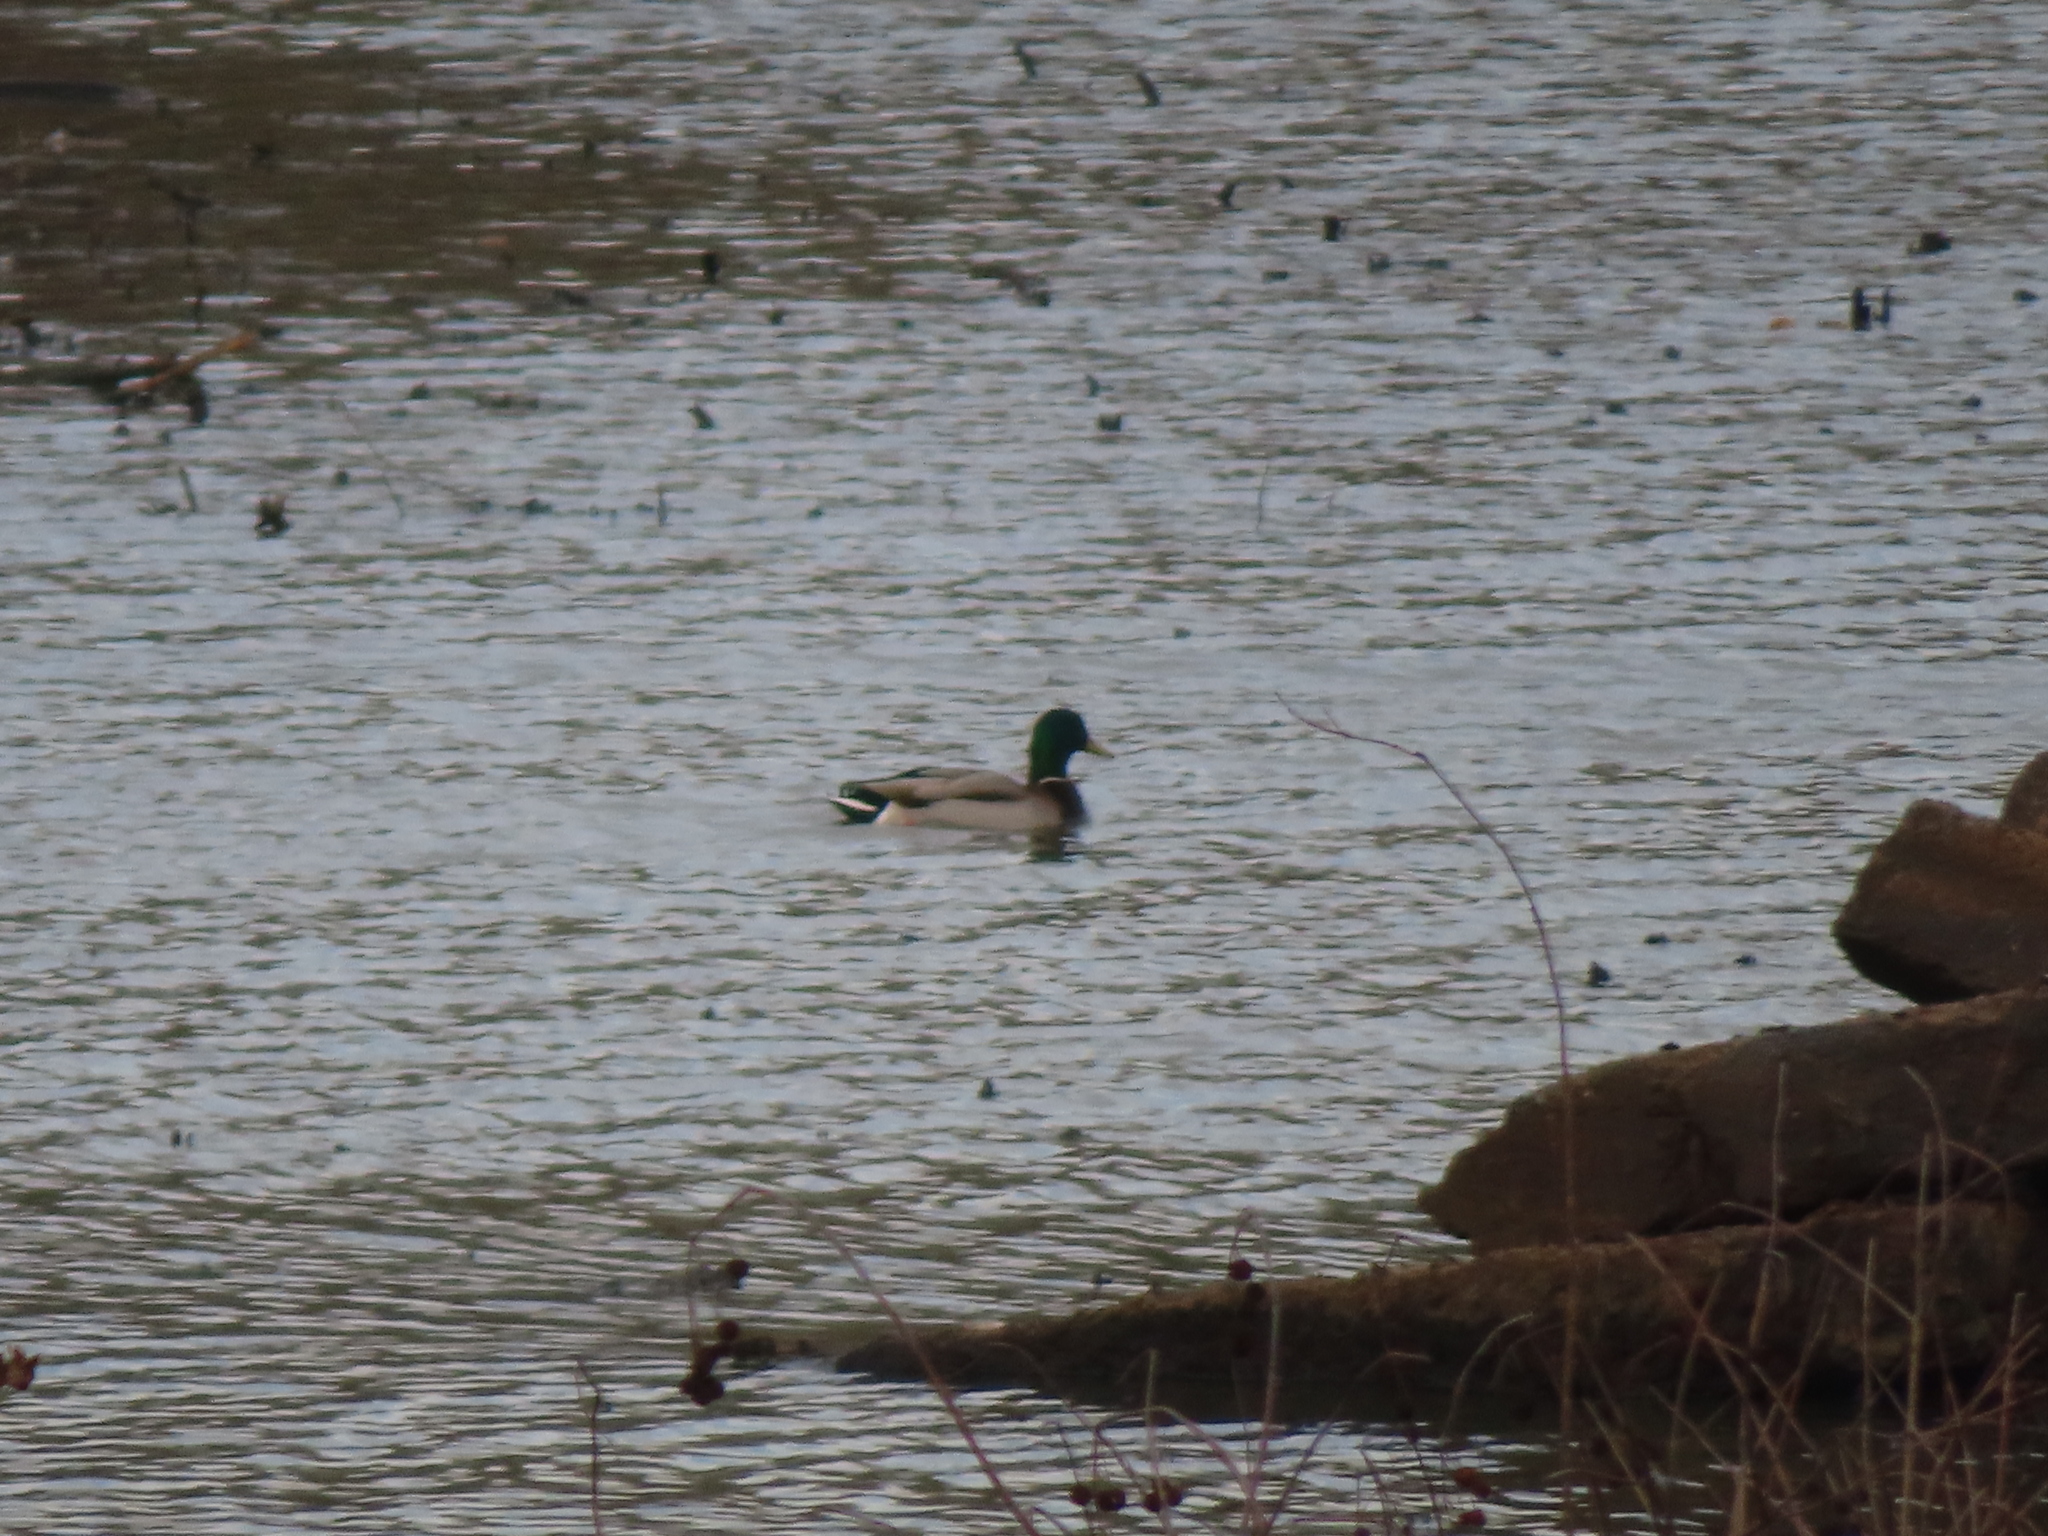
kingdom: Animalia
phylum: Chordata
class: Aves
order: Anseriformes
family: Anatidae
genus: Anas
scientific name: Anas platyrhynchos
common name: Mallard
